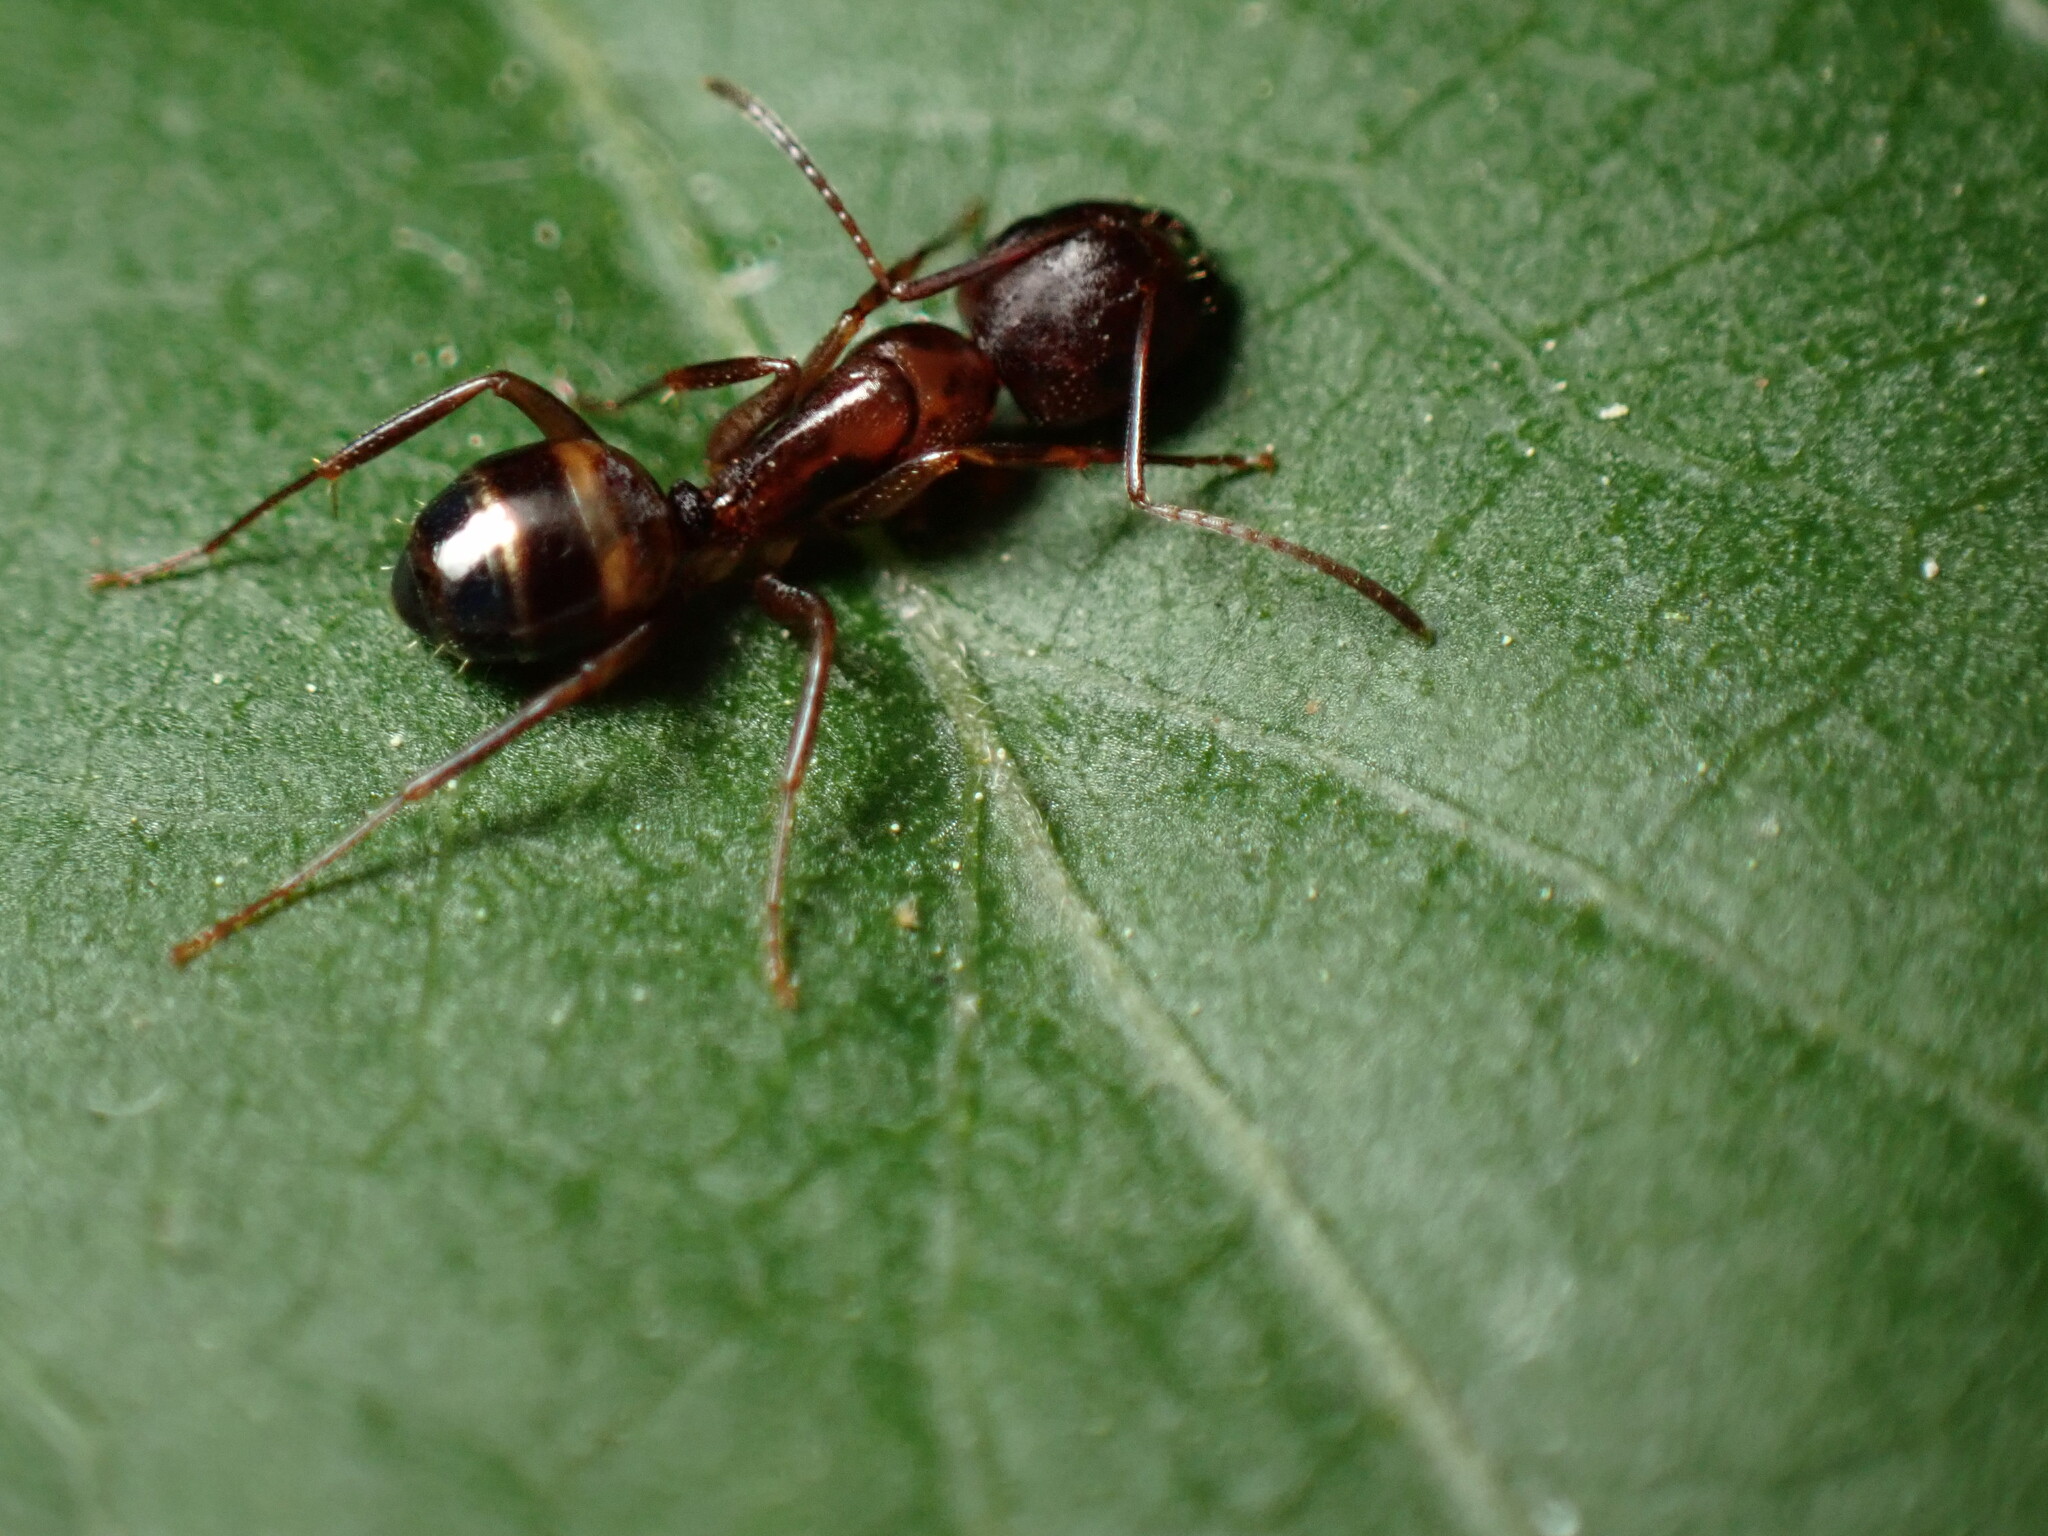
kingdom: Animalia
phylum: Arthropoda
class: Insecta
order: Hymenoptera
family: Formicidae
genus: Camponotus
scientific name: Camponotus subbarbatus
